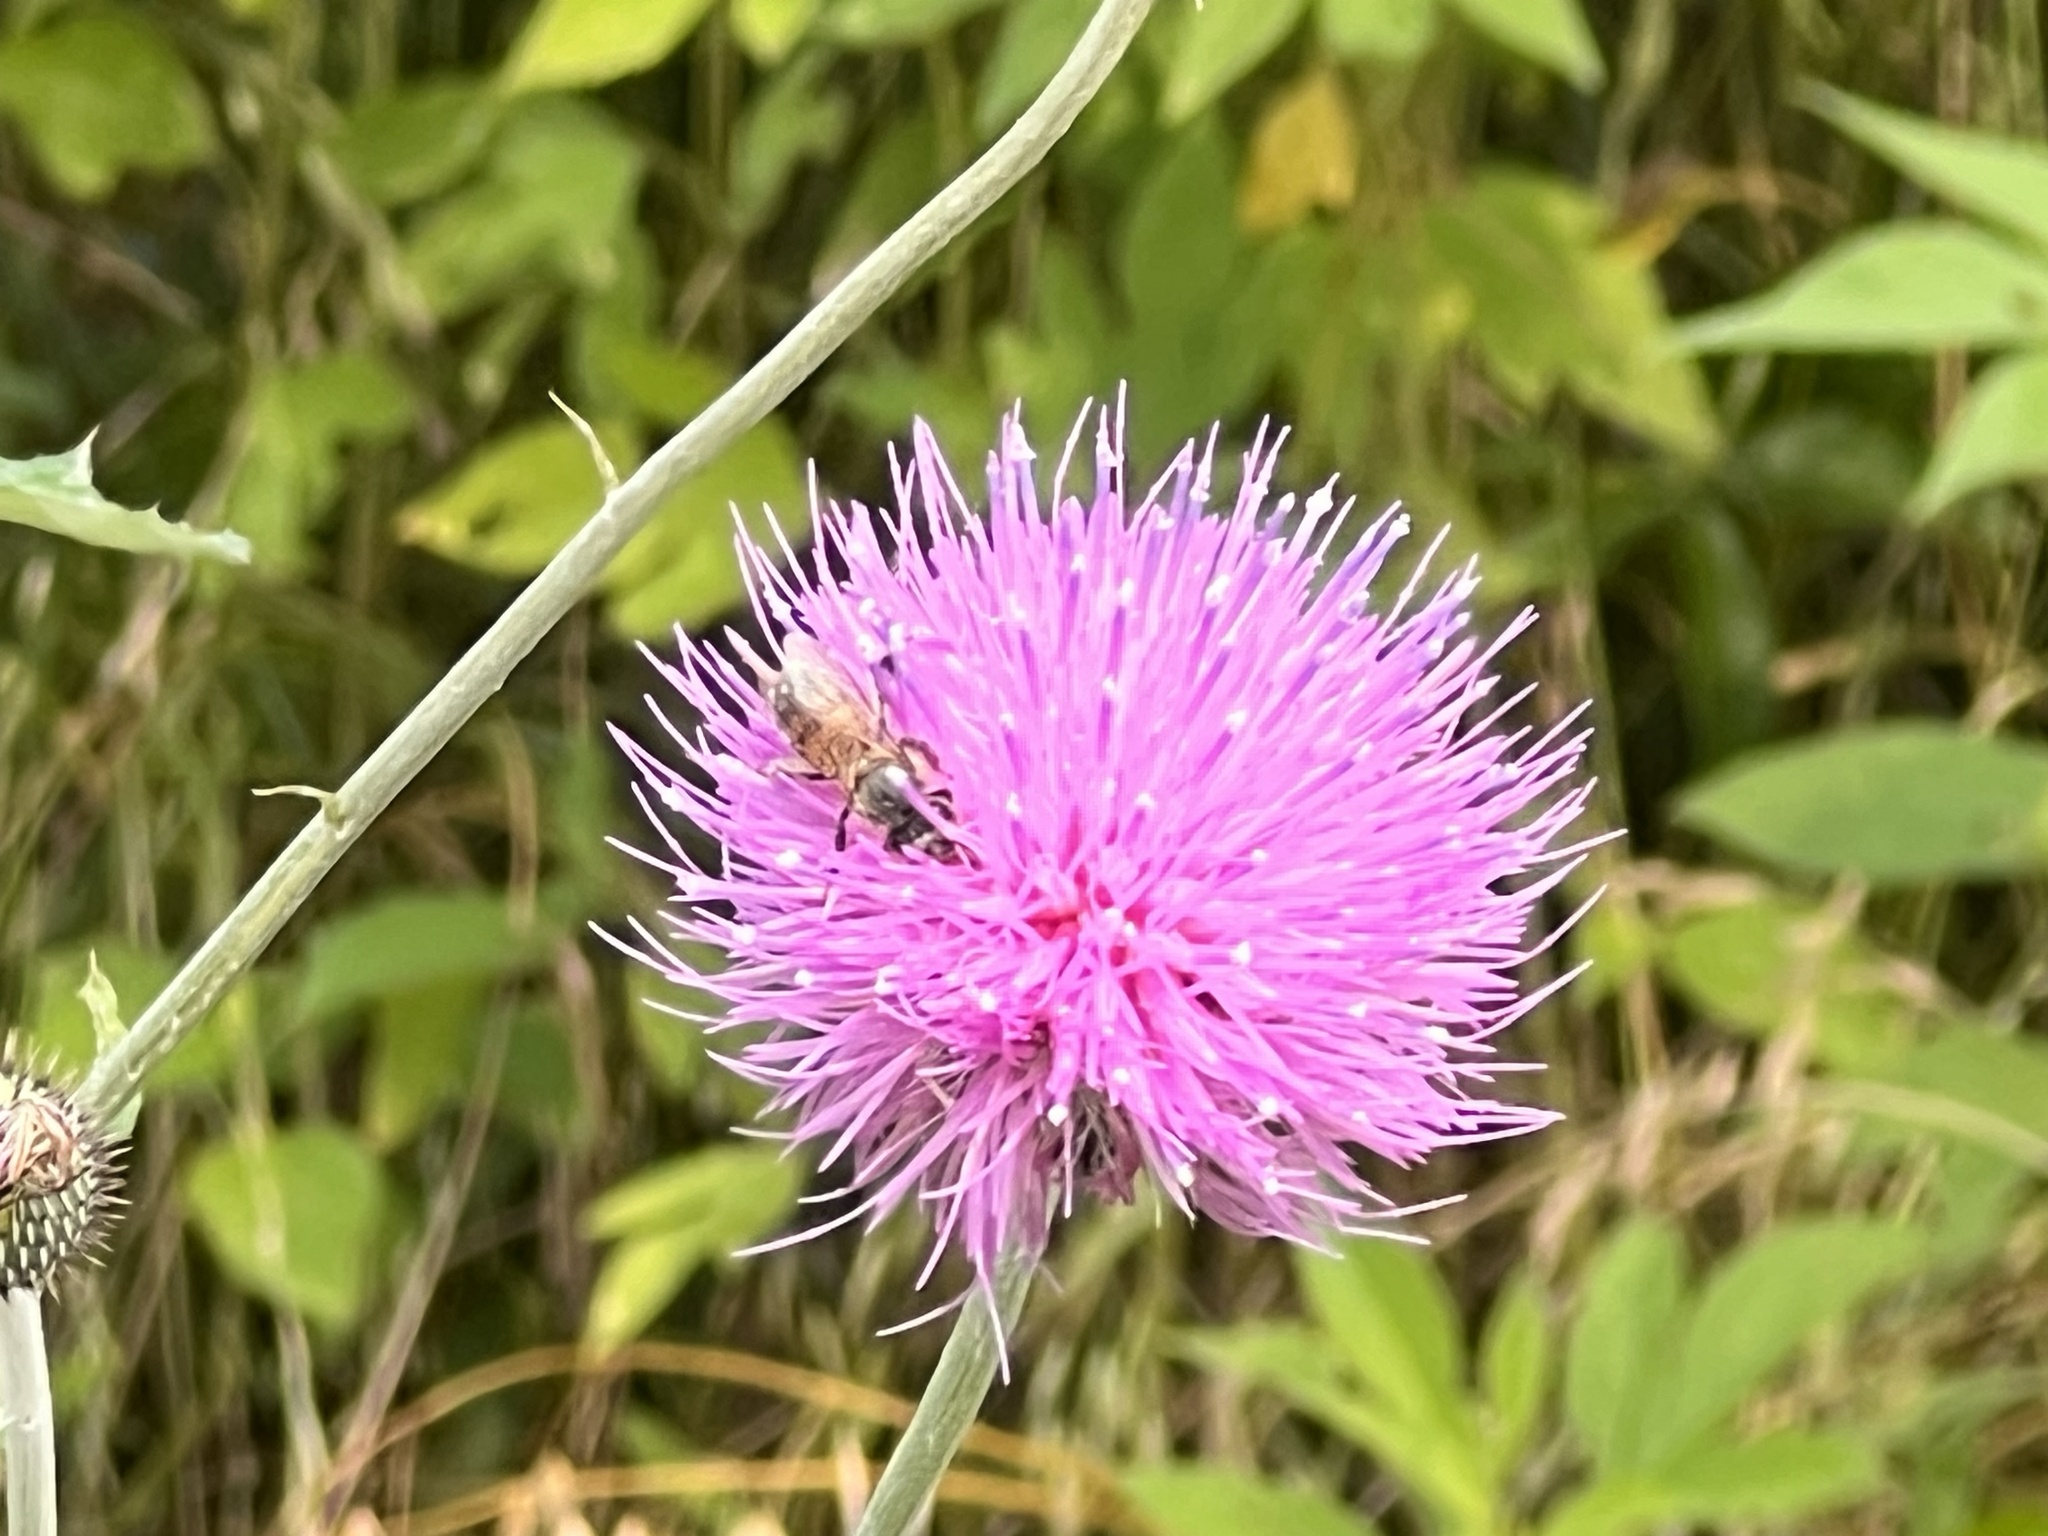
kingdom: Plantae
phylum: Tracheophyta
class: Magnoliopsida
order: Asterales
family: Asteraceae
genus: Cirsium
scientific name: Cirsium texanum
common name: Texas purple thistle
